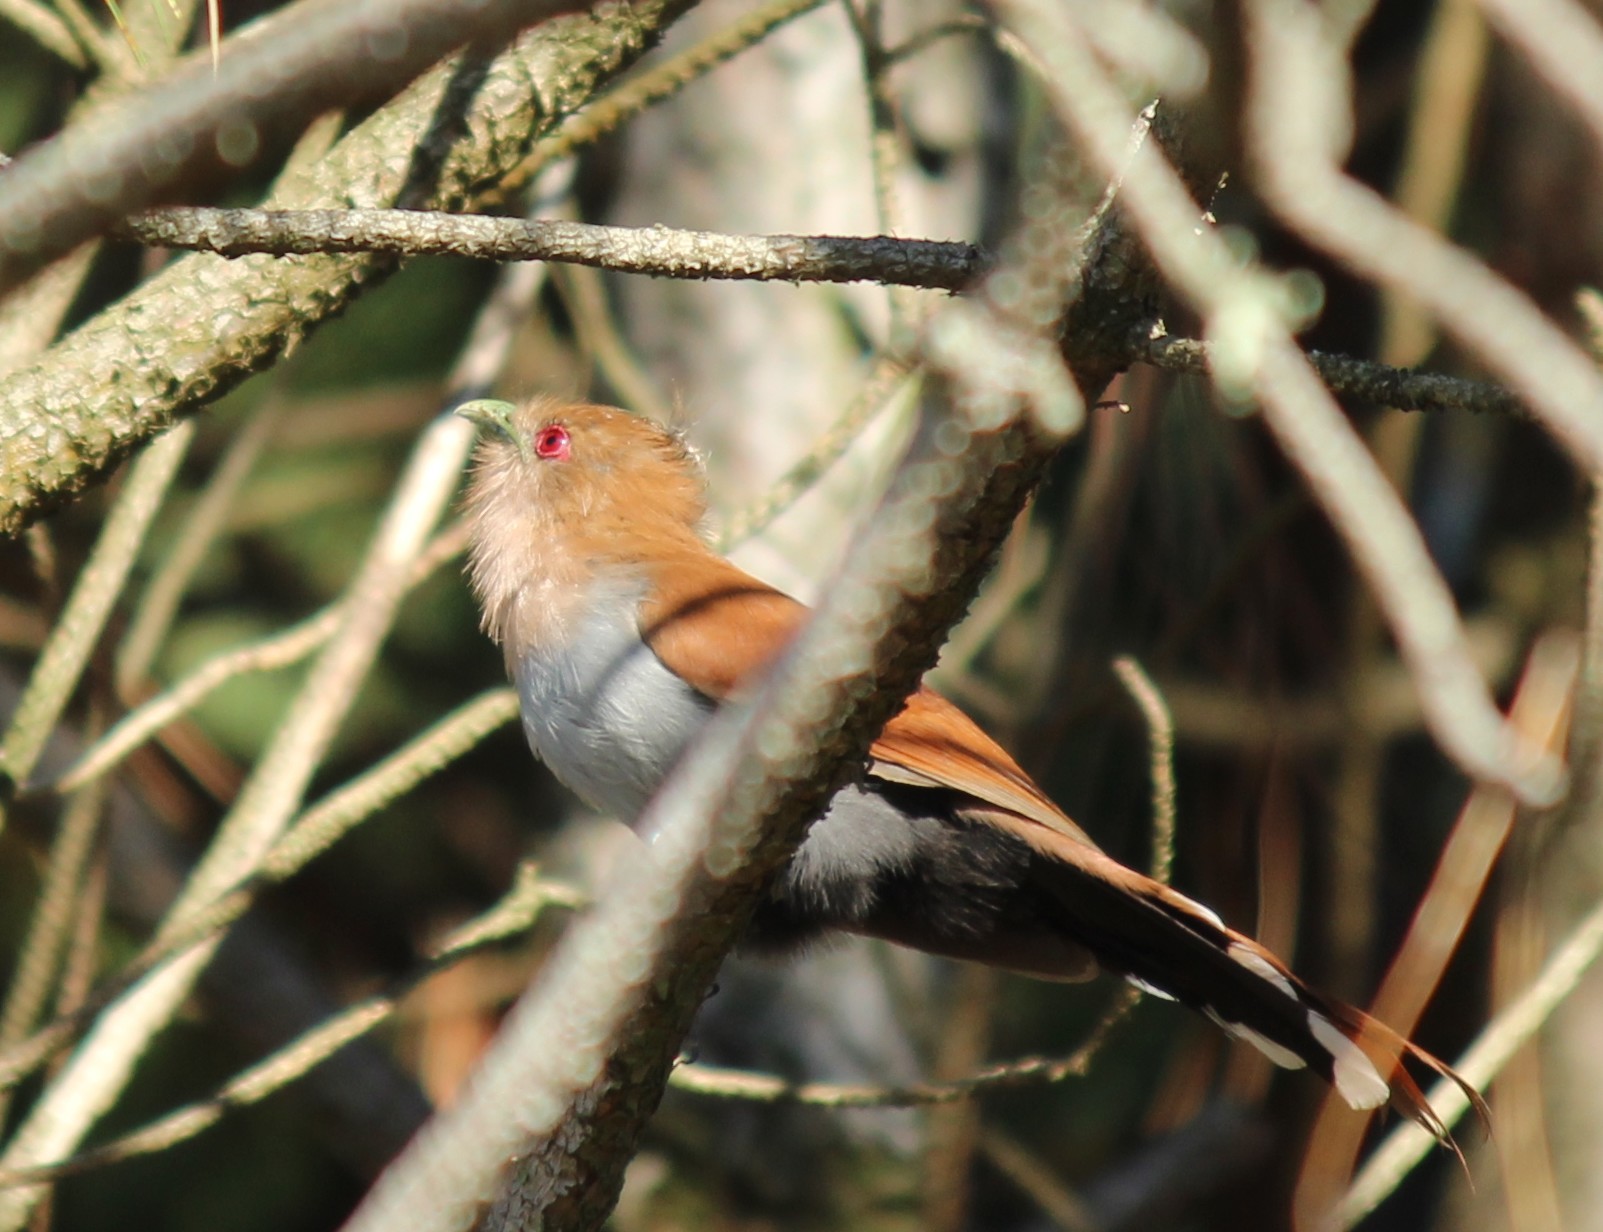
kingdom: Animalia
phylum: Chordata
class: Aves
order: Cuculiformes
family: Cuculidae
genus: Piaya
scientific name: Piaya cayana
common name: Squirrel cuckoo
